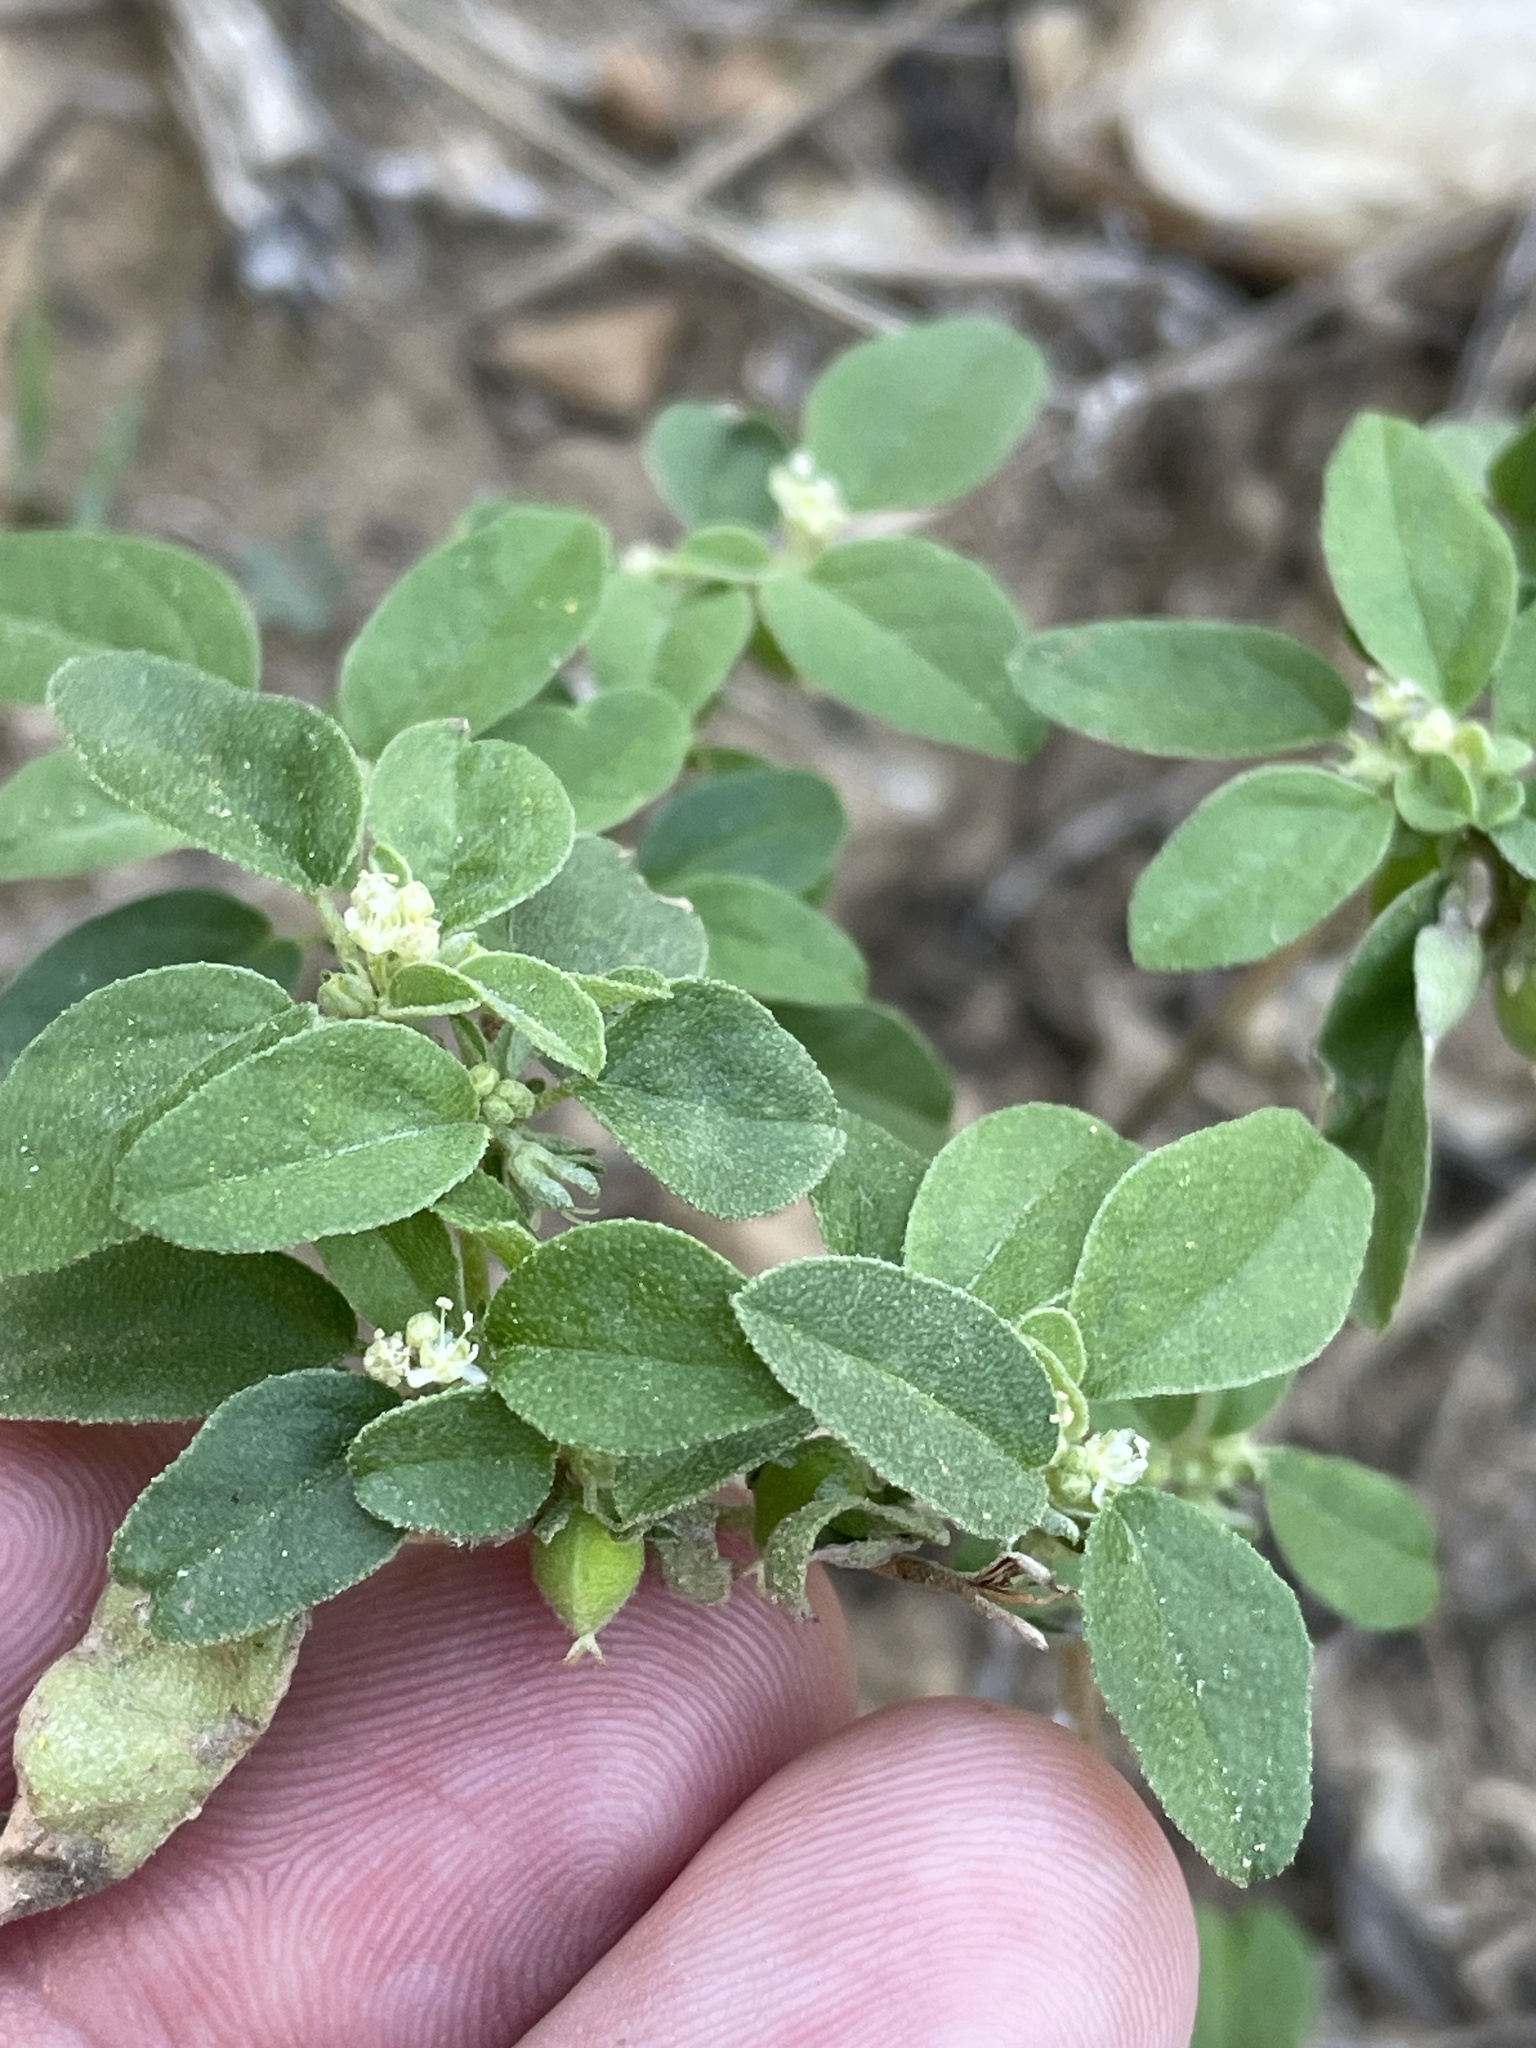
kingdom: Plantae
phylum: Tracheophyta
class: Magnoliopsida
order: Malpighiales
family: Euphorbiaceae
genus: Croton
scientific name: Croton monanthogynus
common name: One-seed croton
